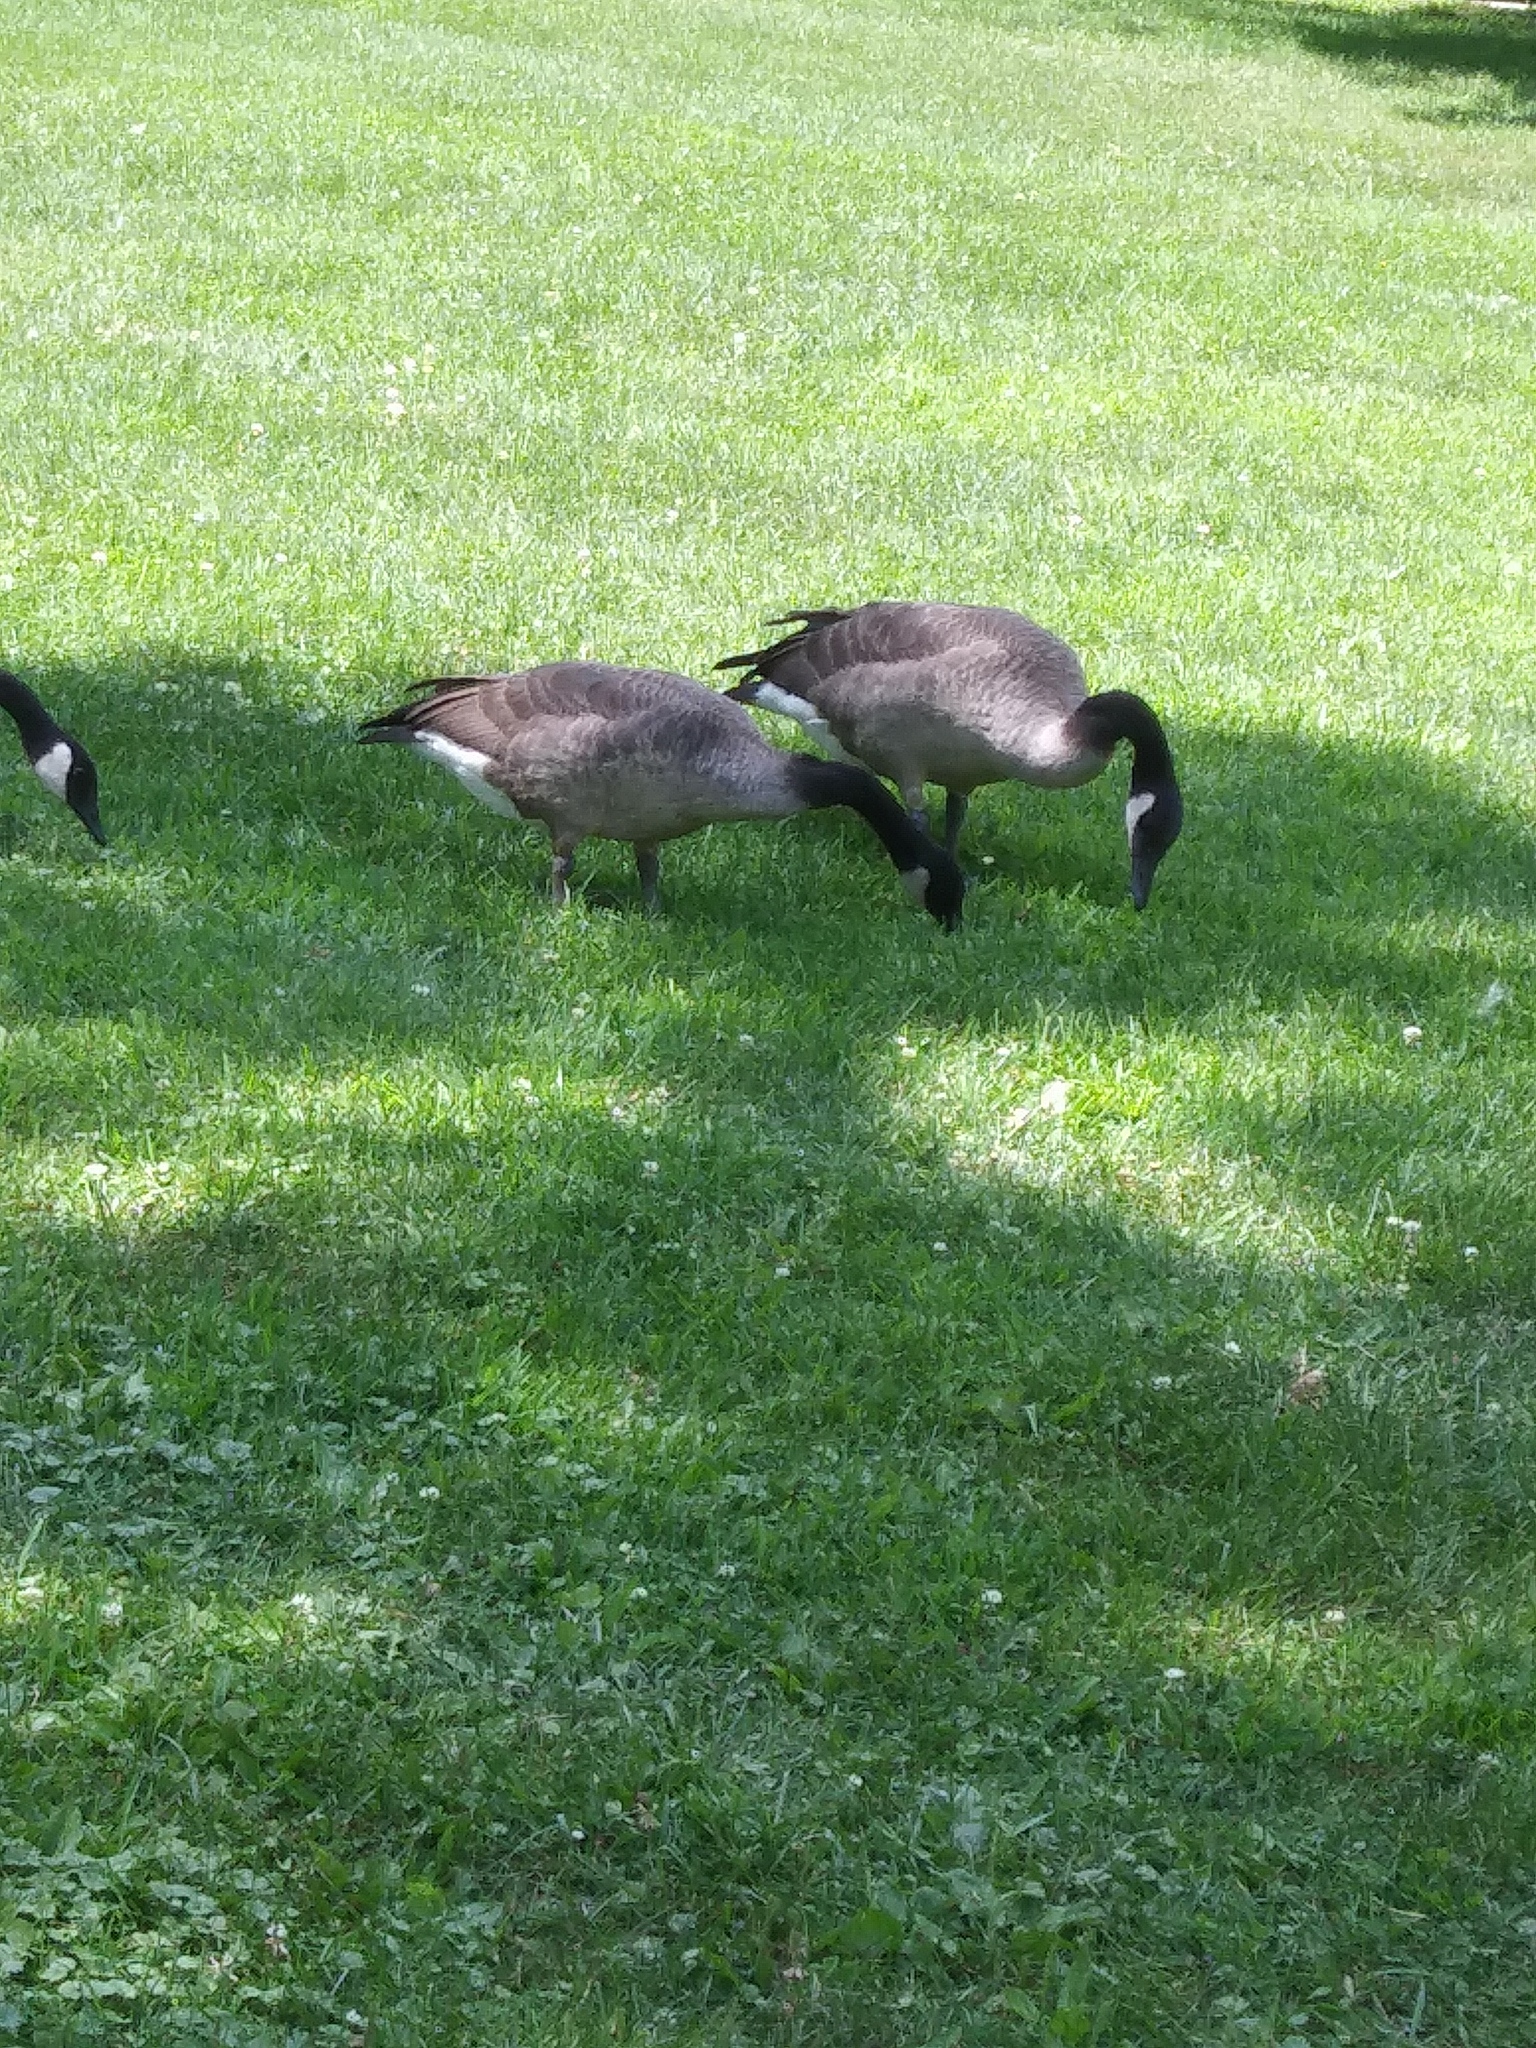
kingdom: Animalia
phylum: Chordata
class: Aves
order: Anseriformes
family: Anatidae
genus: Branta
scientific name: Branta canadensis
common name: Canada goose
